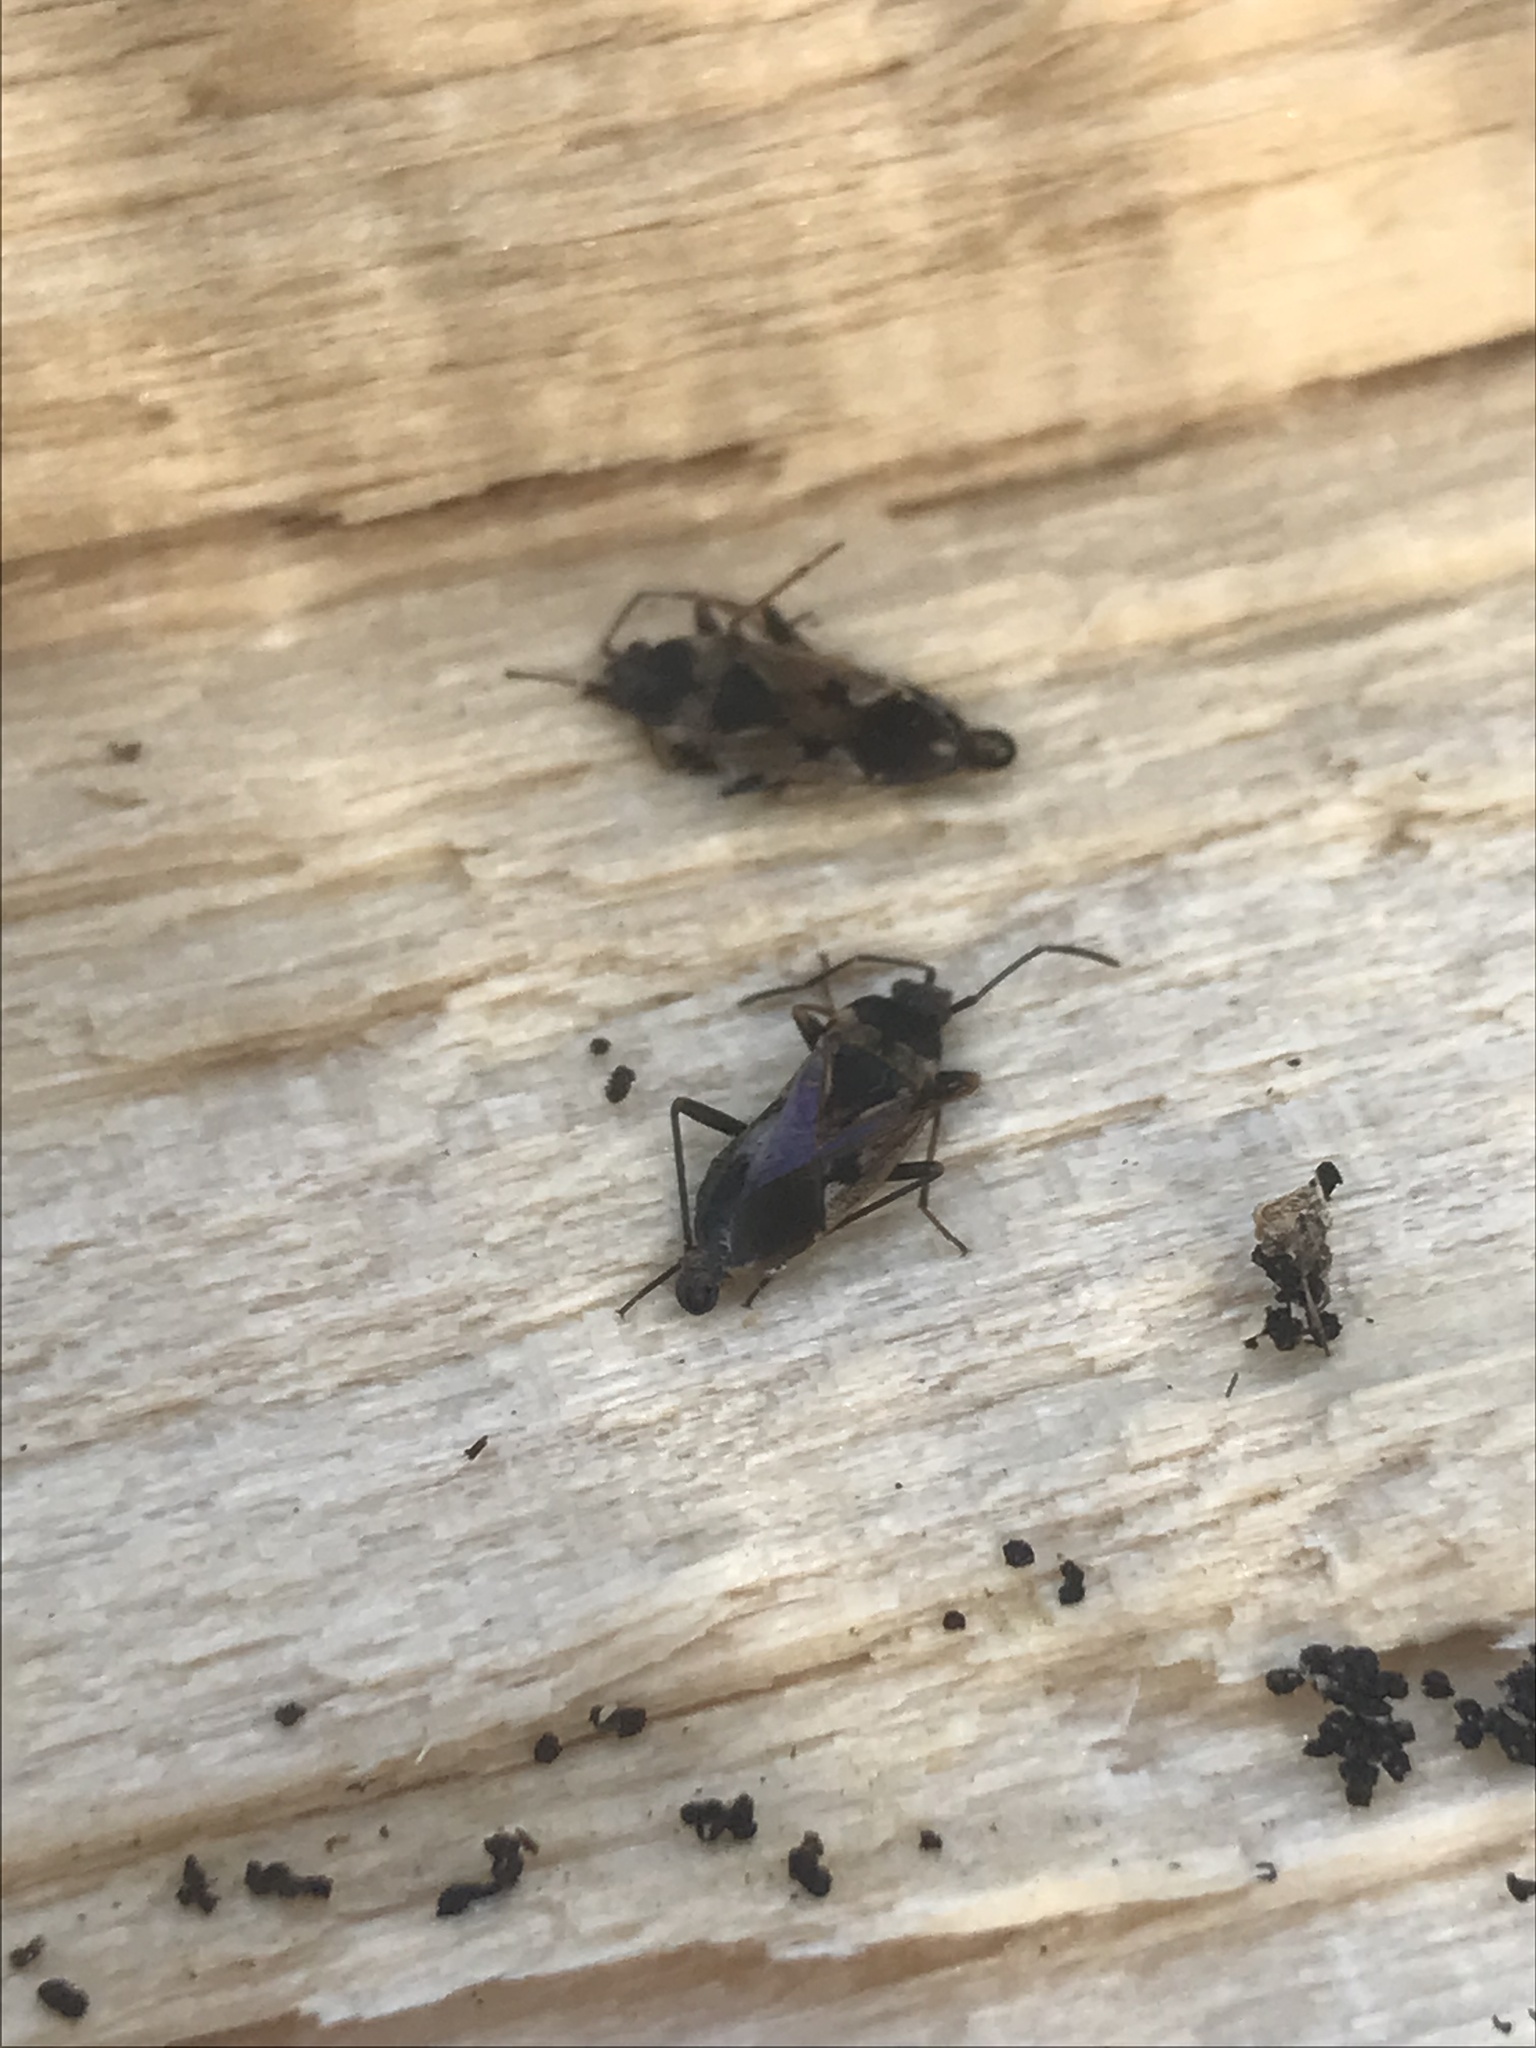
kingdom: Animalia
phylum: Arthropoda
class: Insecta
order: Hemiptera
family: Rhyparochromidae
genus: Rhyparochromus
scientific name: Rhyparochromus vulgaris
